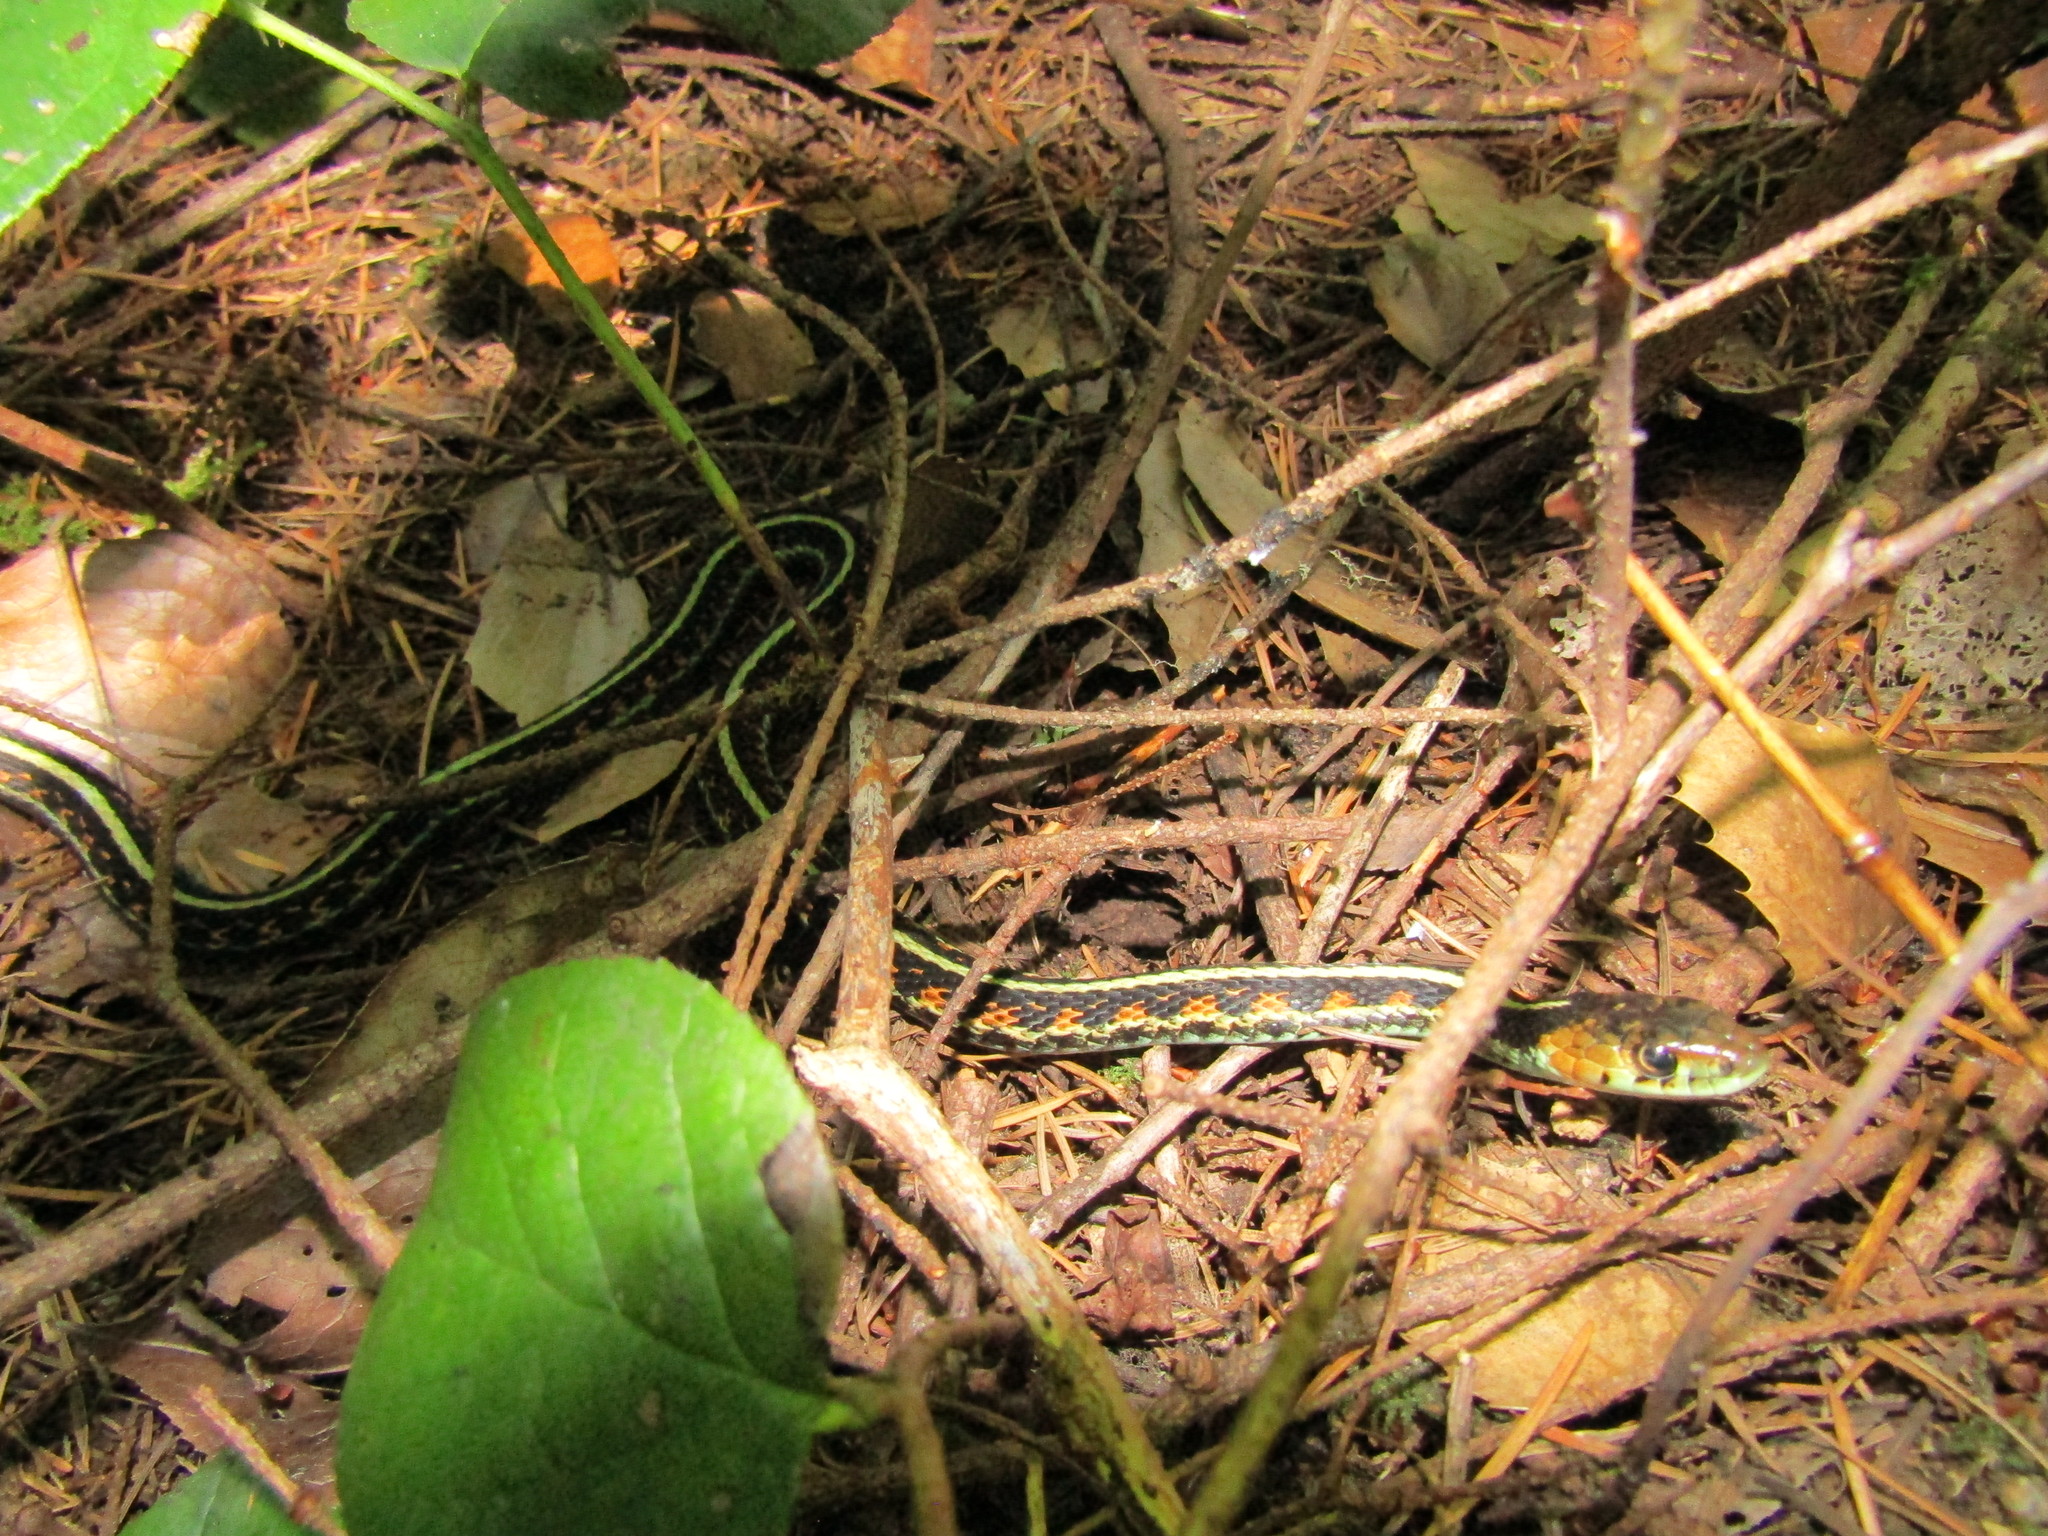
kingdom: Animalia
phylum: Chordata
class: Squamata
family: Colubridae
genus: Thamnophis
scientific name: Thamnophis sirtalis
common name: Common garter snake
